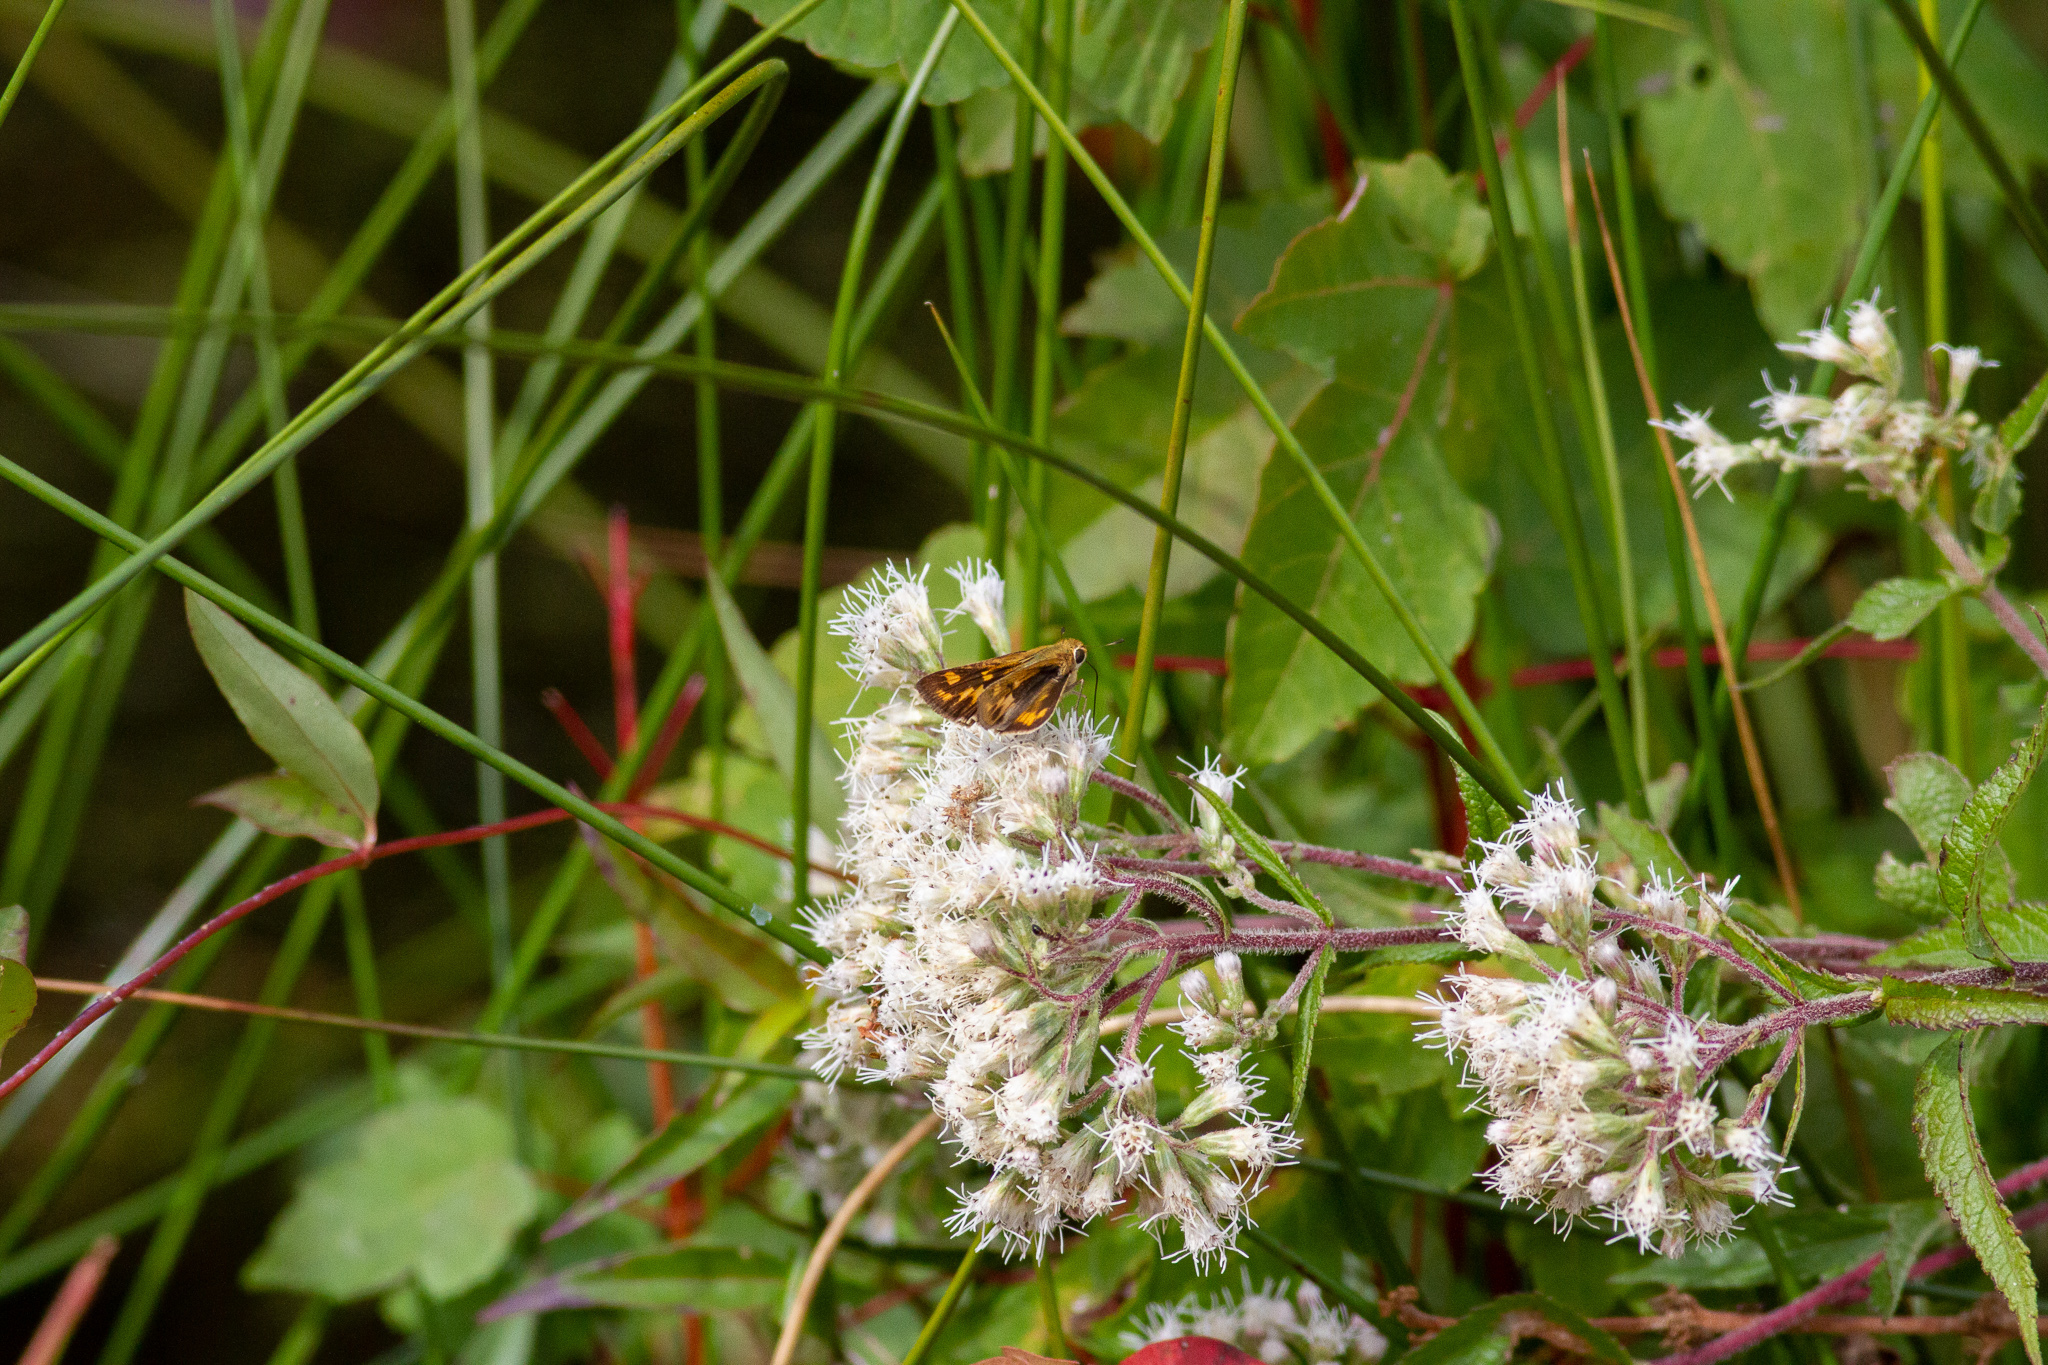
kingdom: Animalia
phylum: Arthropoda
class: Insecta
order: Lepidoptera
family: Hesperiidae
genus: Hylephila
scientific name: Hylephila phyleus
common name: Fiery skipper
